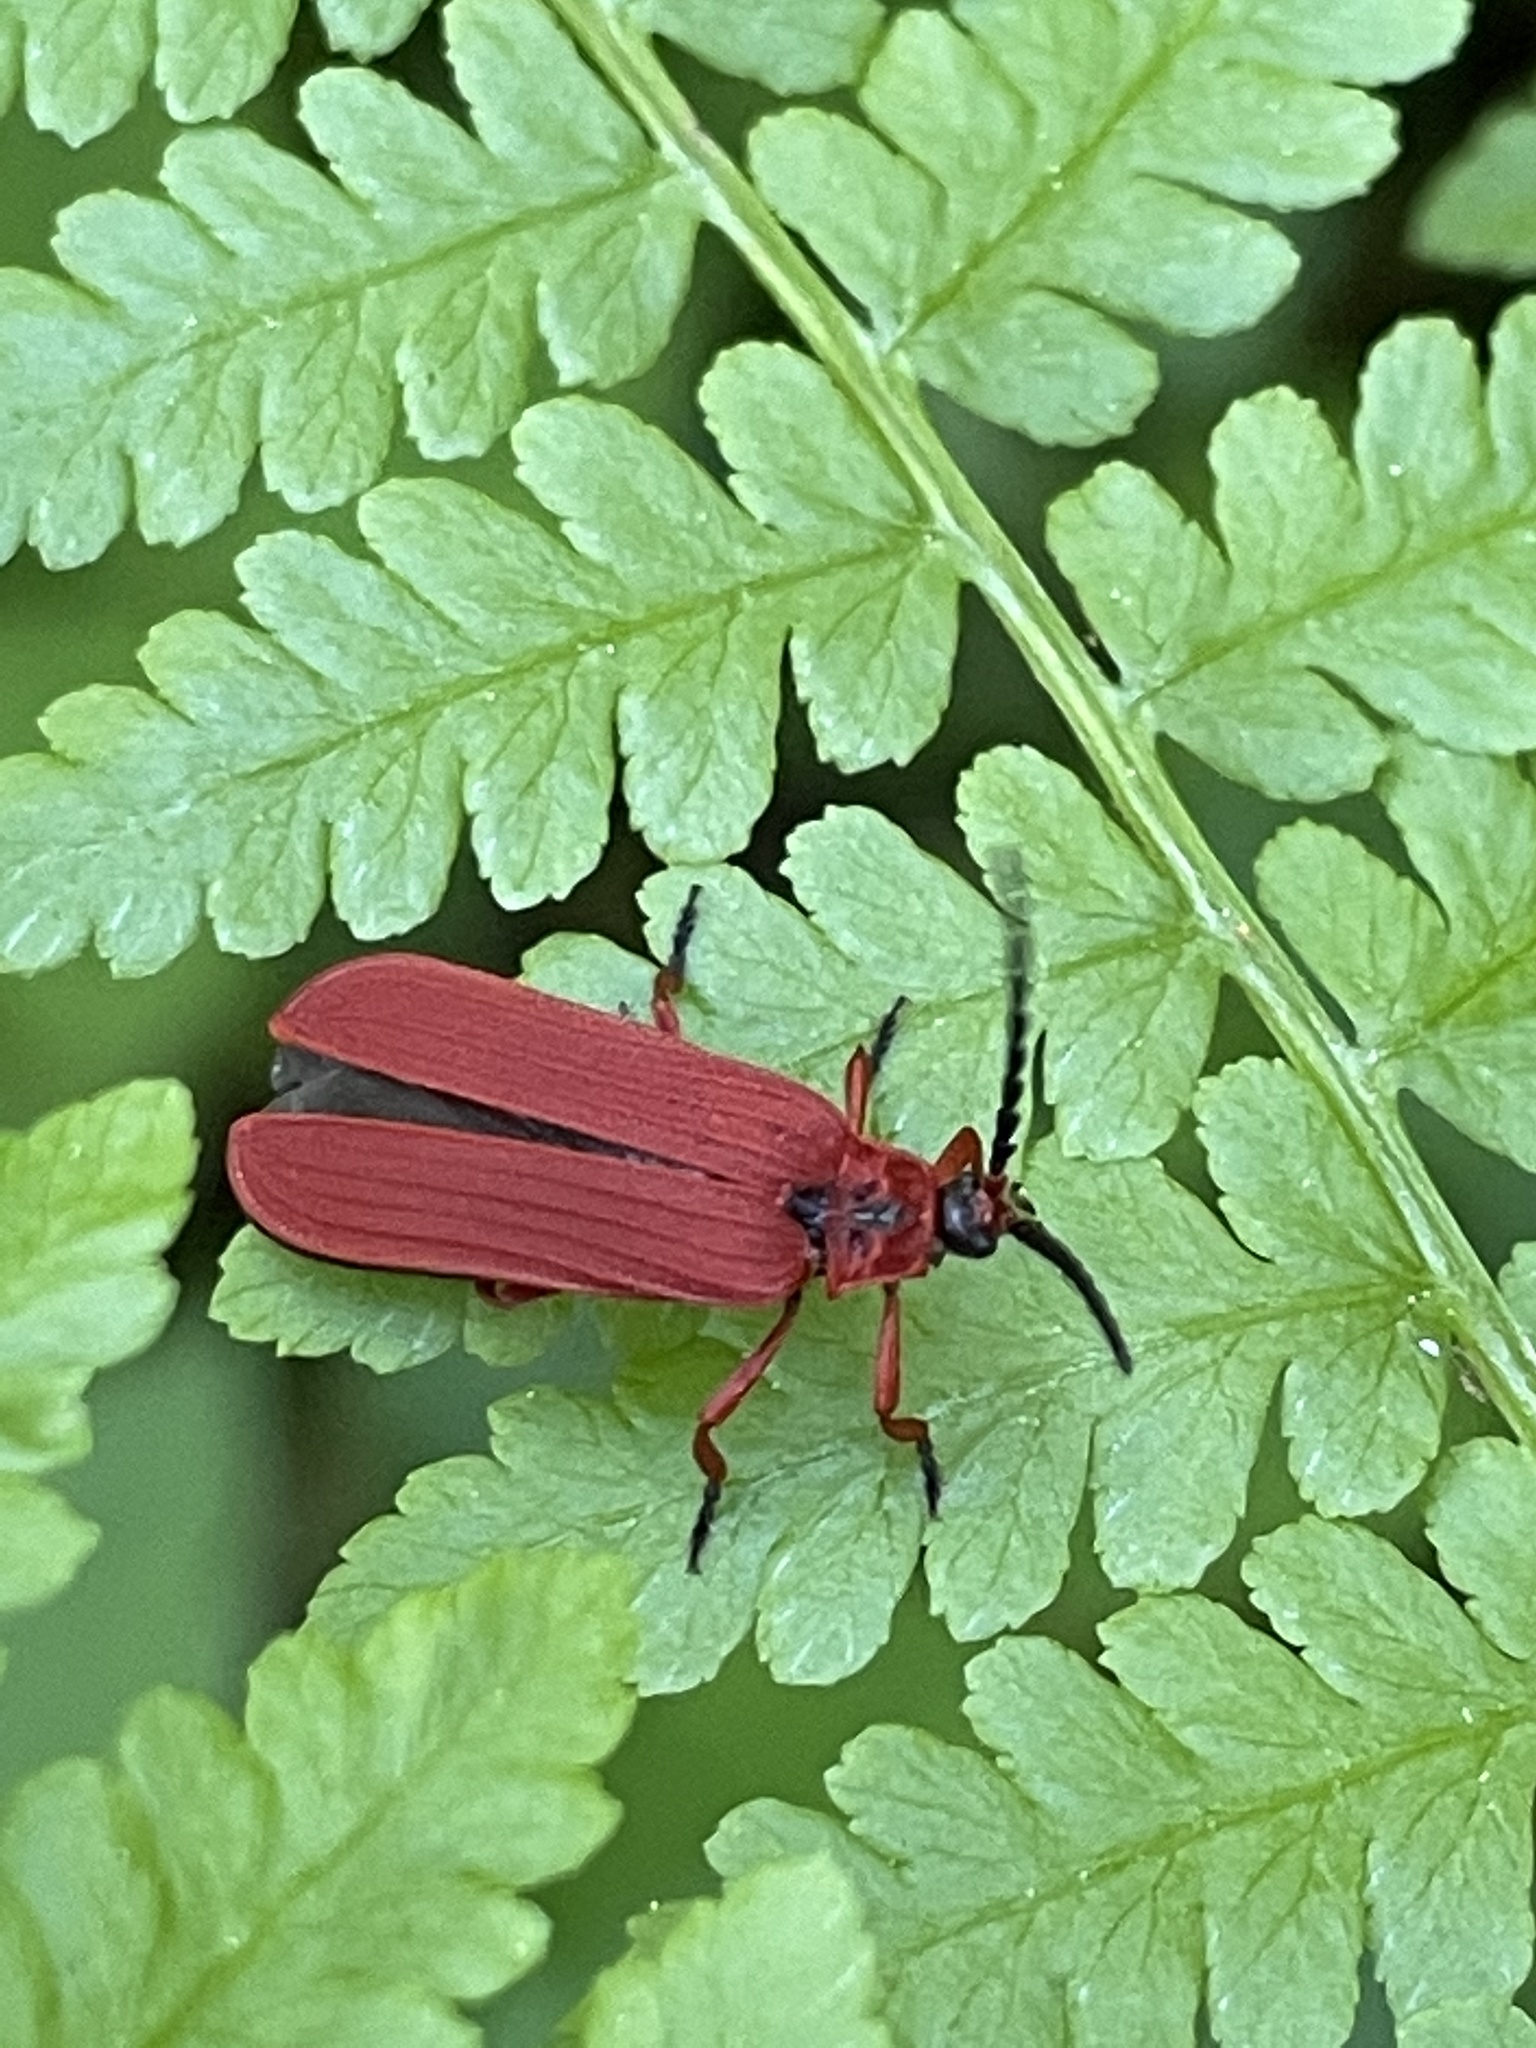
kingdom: Animalia
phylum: Arthropoda
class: Insecta
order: Coleoptera
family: Lycidae
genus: Dictyoptera
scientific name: Dictyoptera simplicipes
